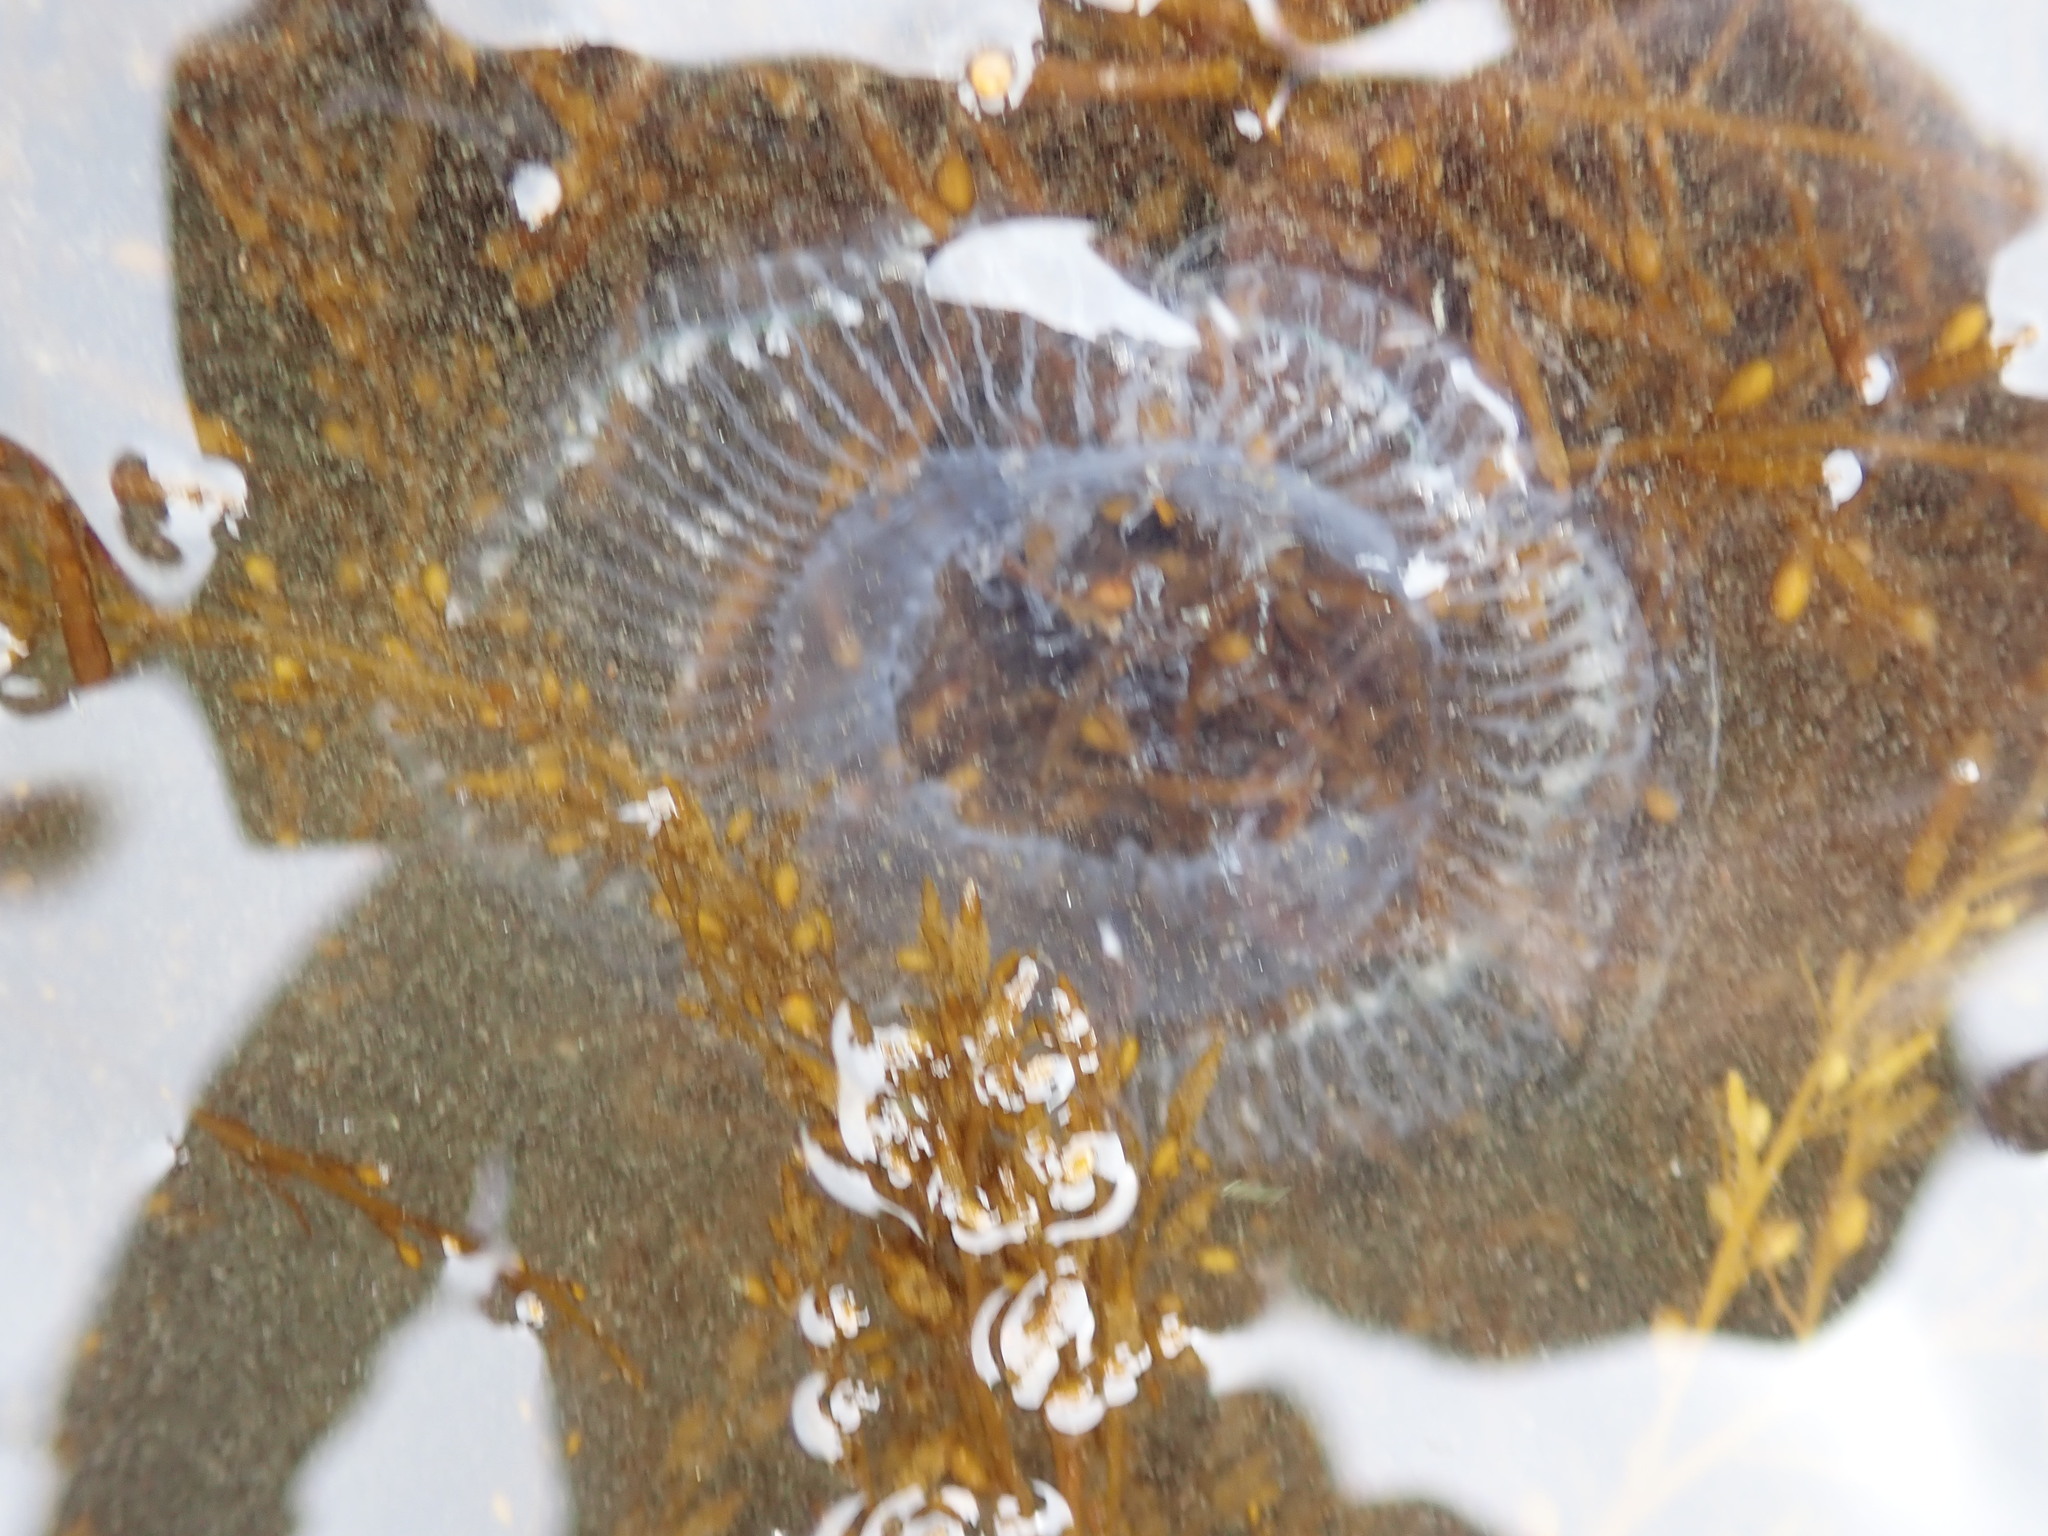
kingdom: Animalia
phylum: Cnidaria
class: Hydrozoa
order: Leptothecata
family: Aequoreidae
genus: Aequorea
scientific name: Aequorea victoria
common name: Water jellyfish
